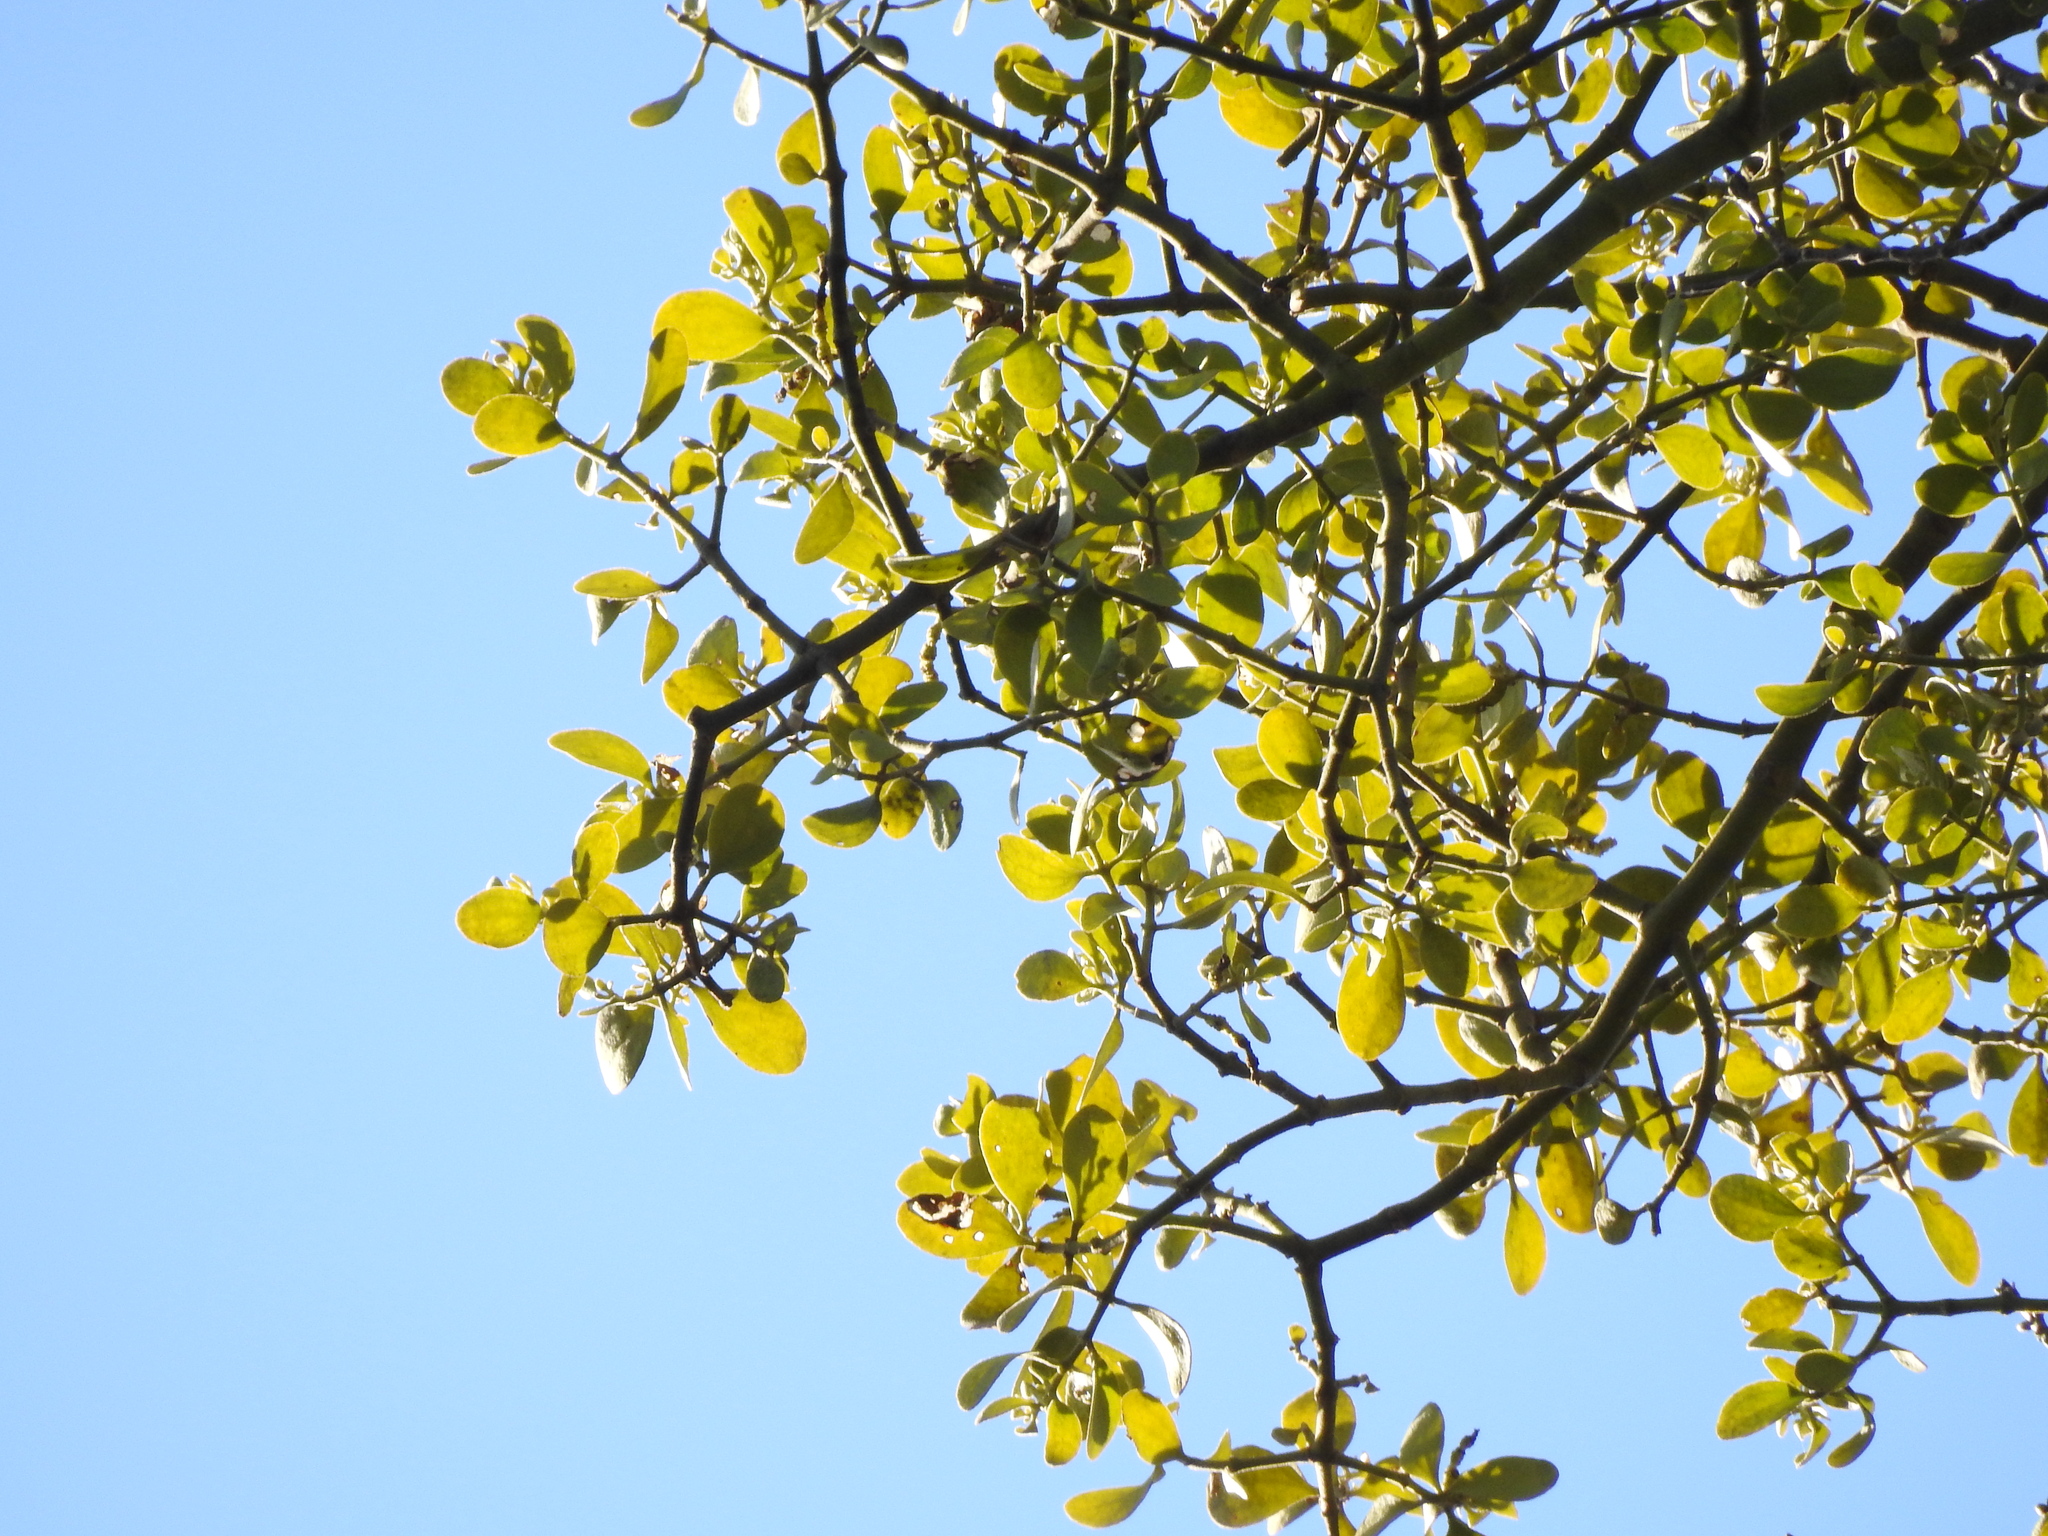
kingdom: Plantae
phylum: Tracheophyta
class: Magnoliopsida
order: Santalales
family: Viscaceae
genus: Phoradendron
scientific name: Phoradendron leucarpum
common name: Pacific mistletoe
